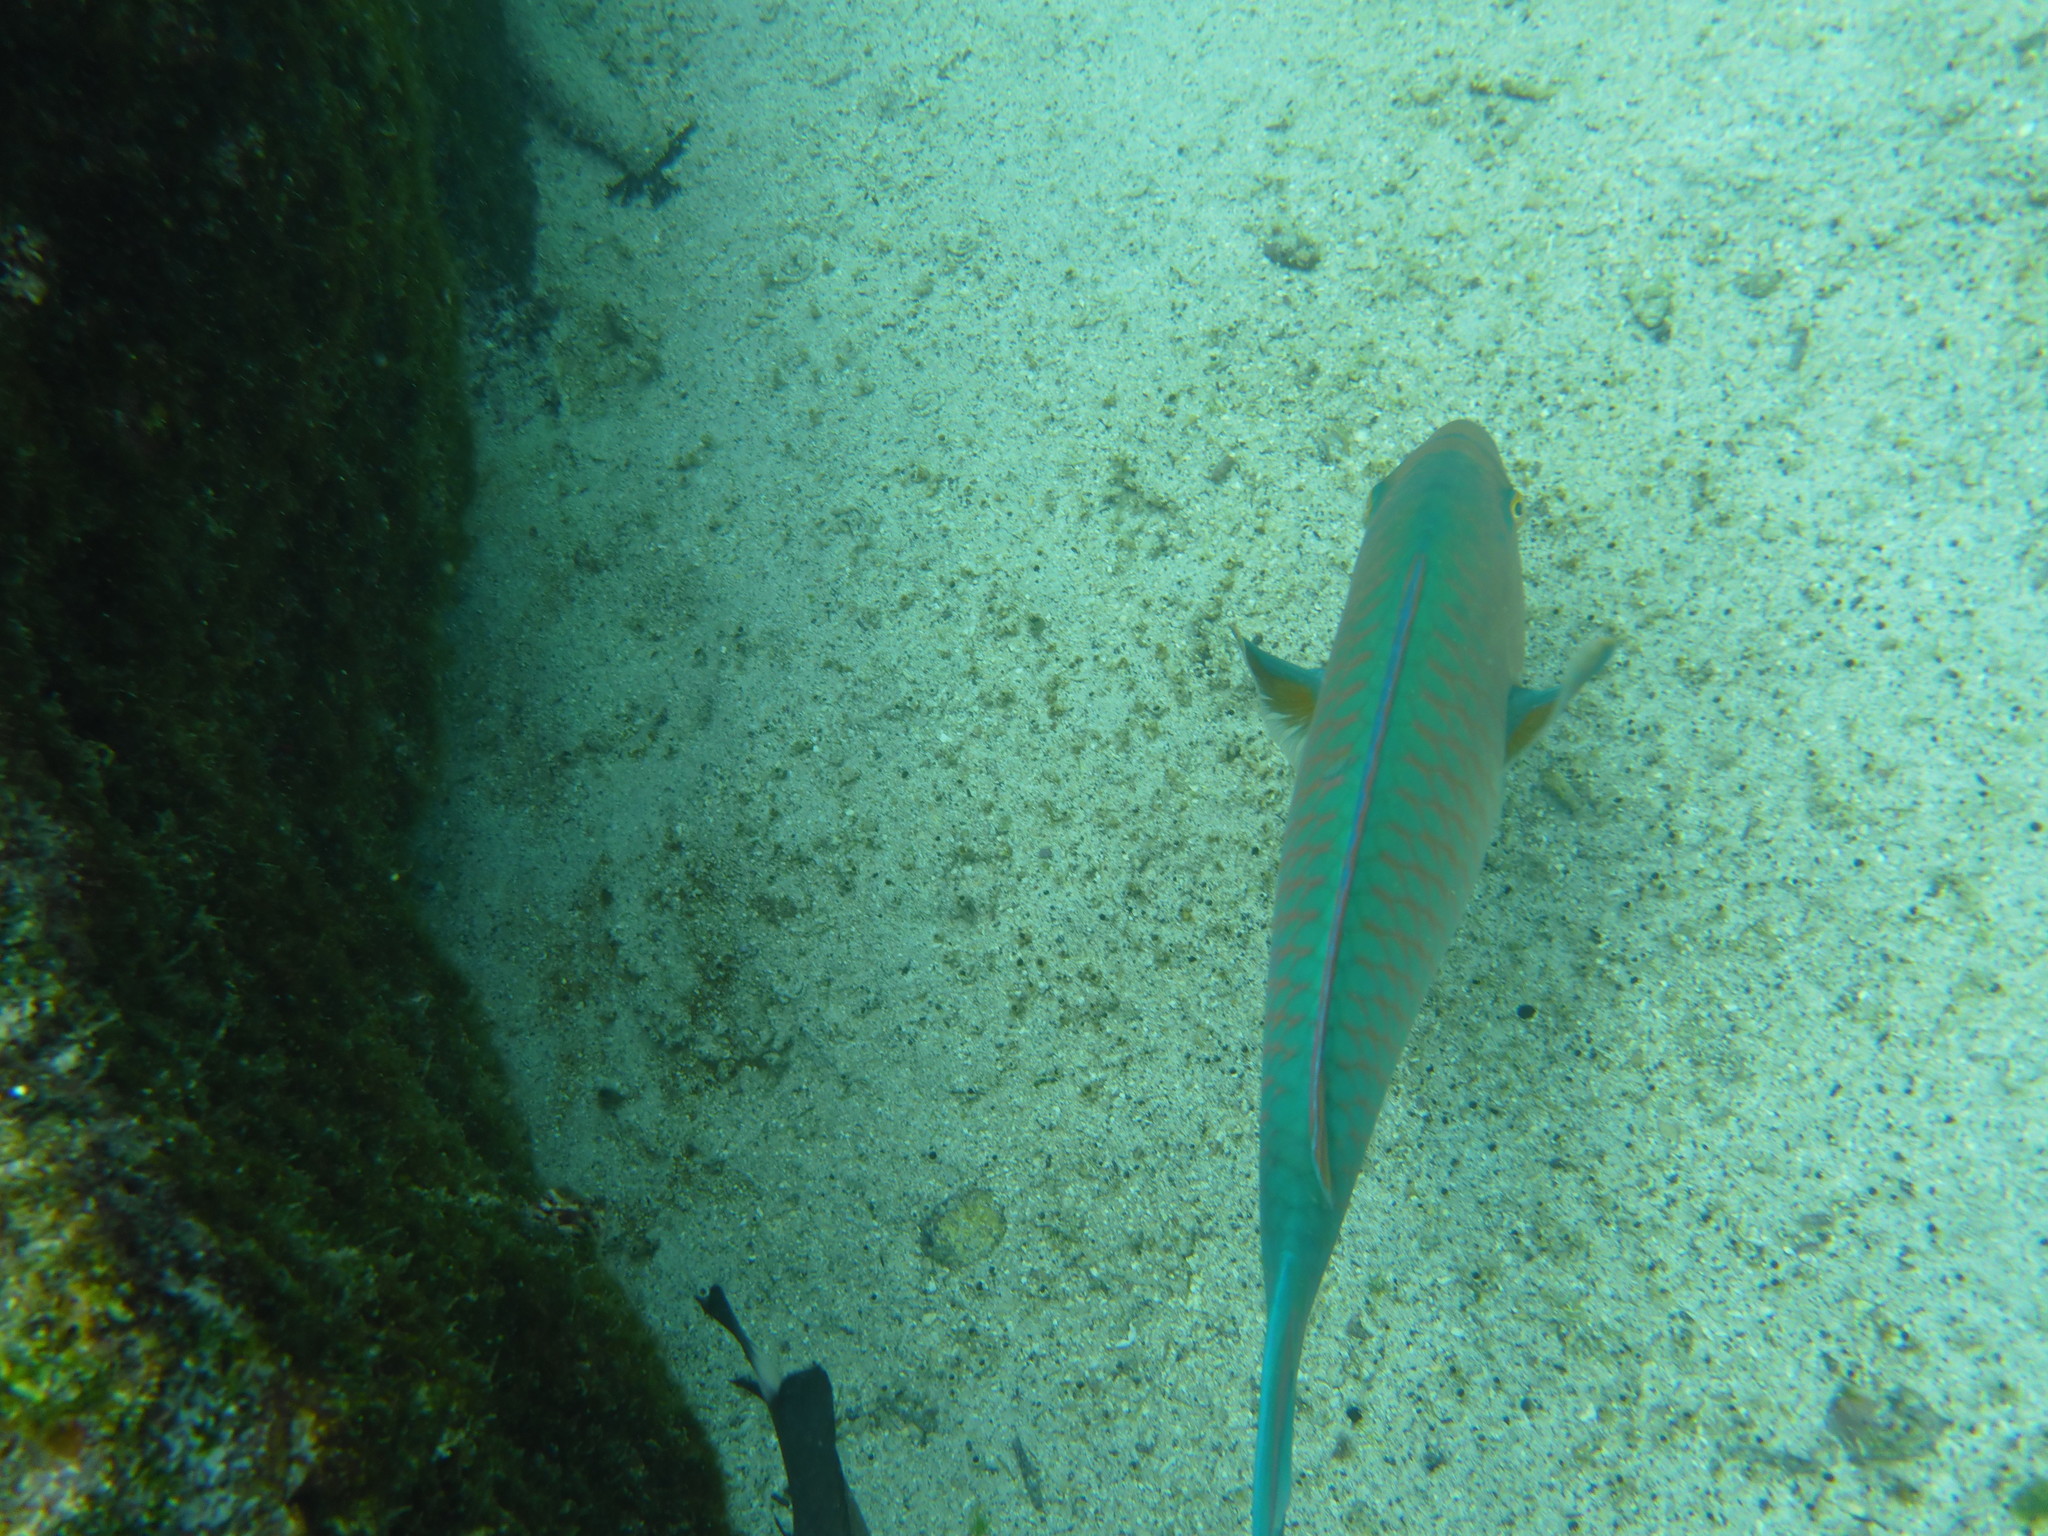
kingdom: Animalia
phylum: Chordata
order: Perciformes
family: Scaridae
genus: Scarus
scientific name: Scarus ghobban
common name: Blue-barred parrotfish
